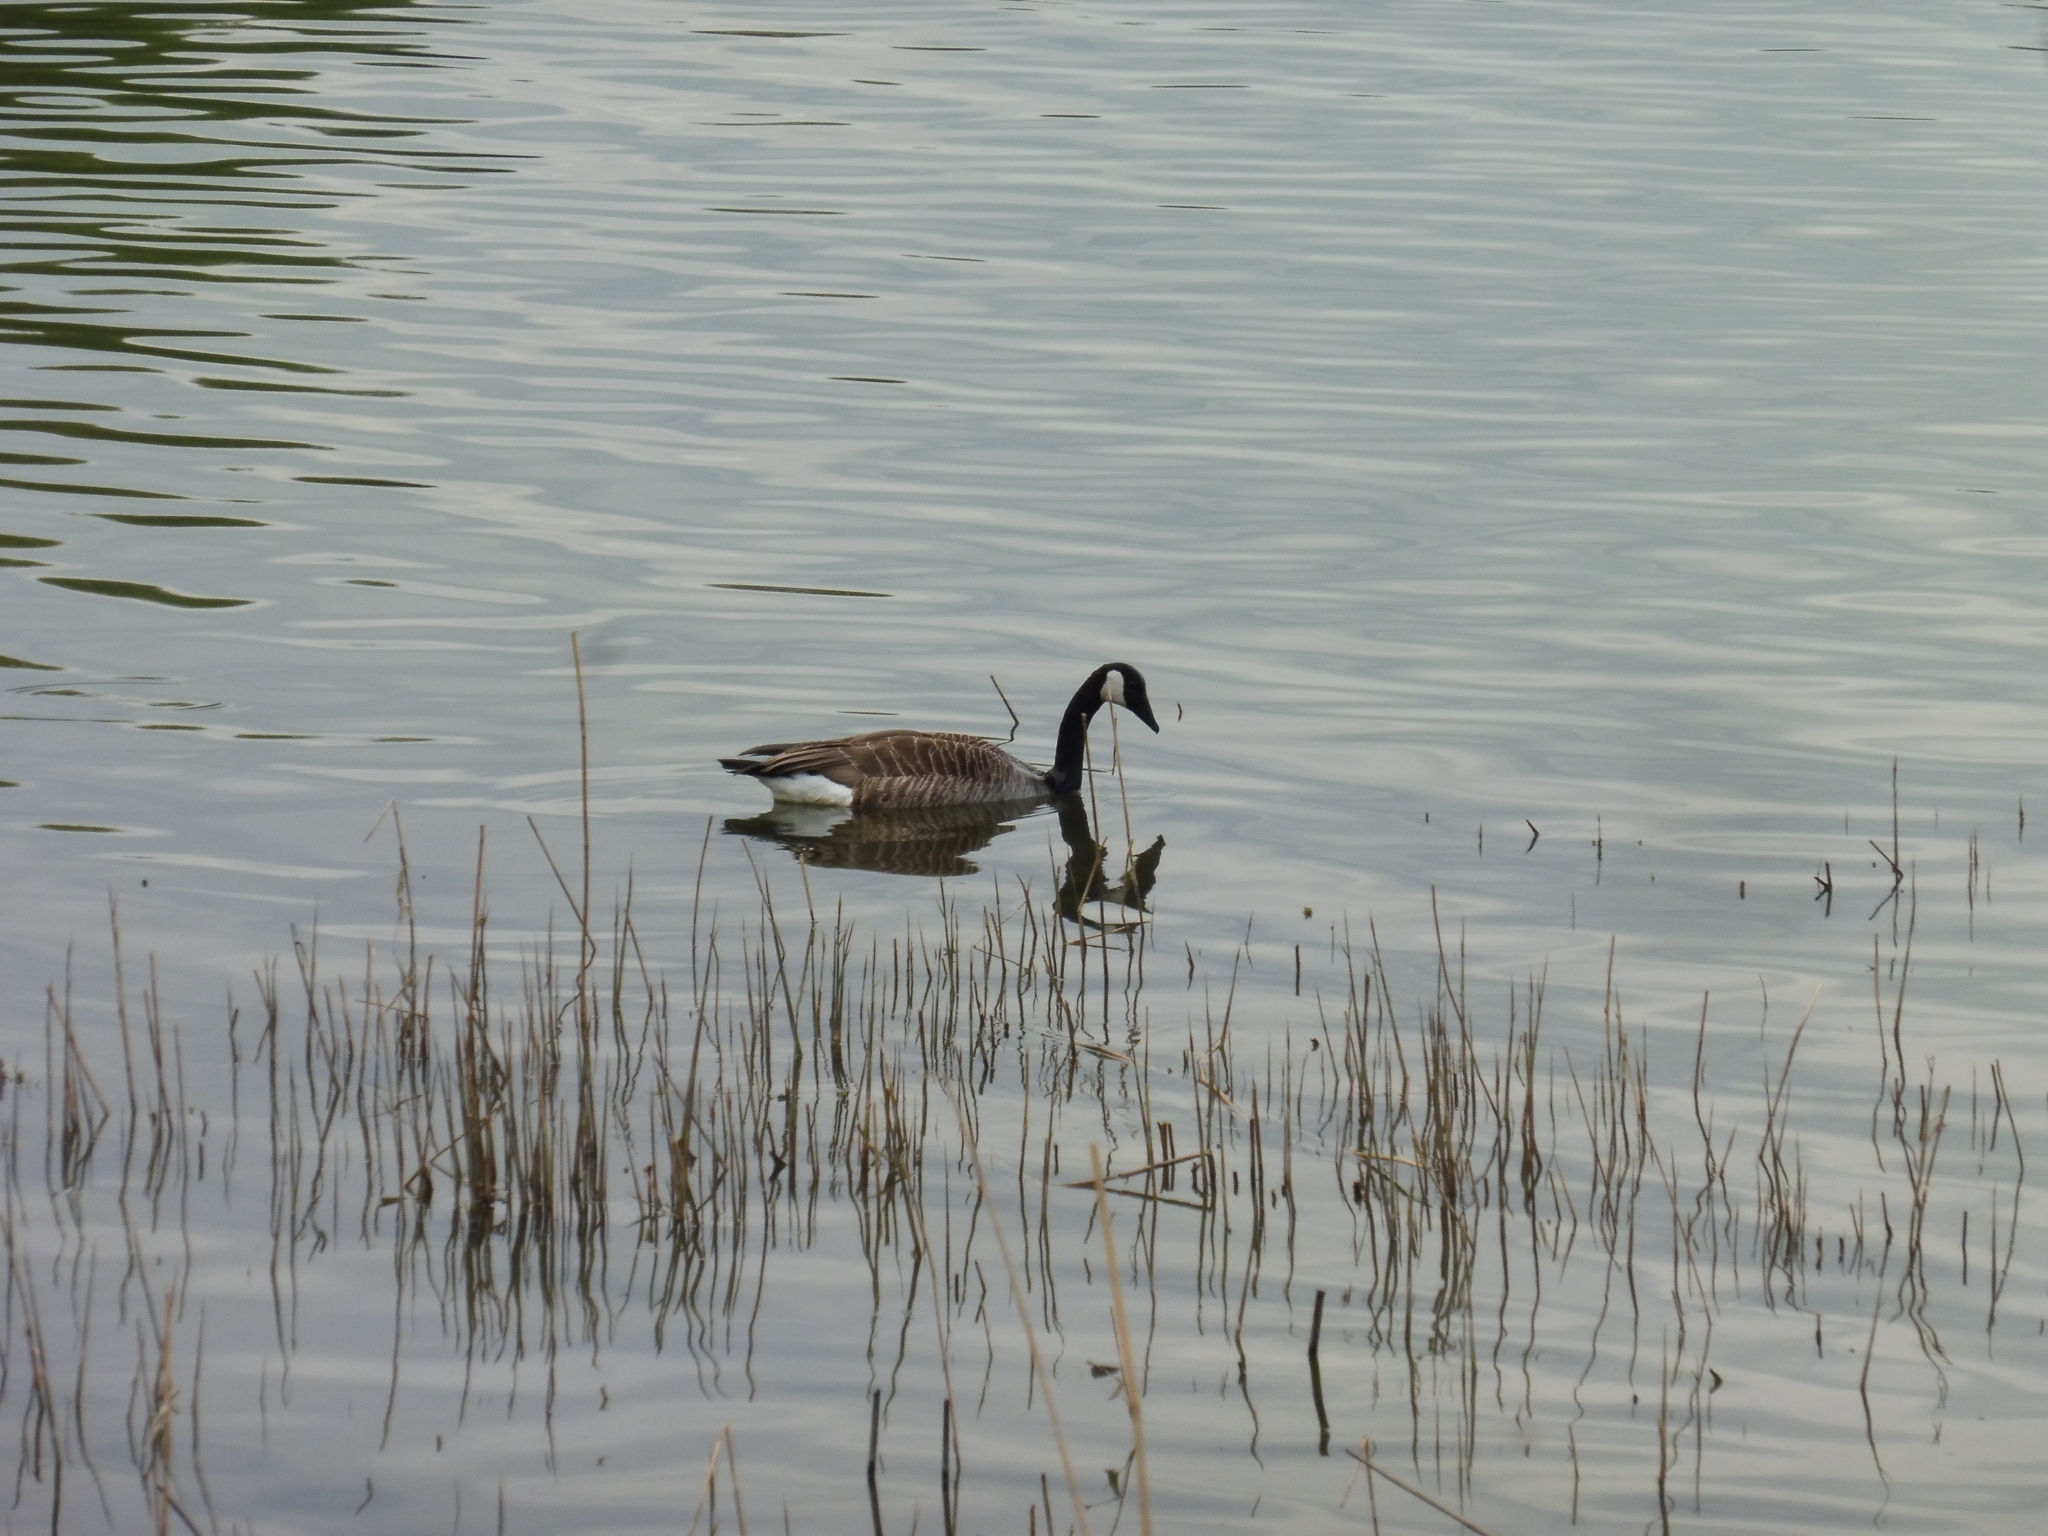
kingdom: Animalia
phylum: Chordata
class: Aves
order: Anseriformes
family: Anatidae
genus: Branta
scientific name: Branta canadensis
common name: Canada goose
